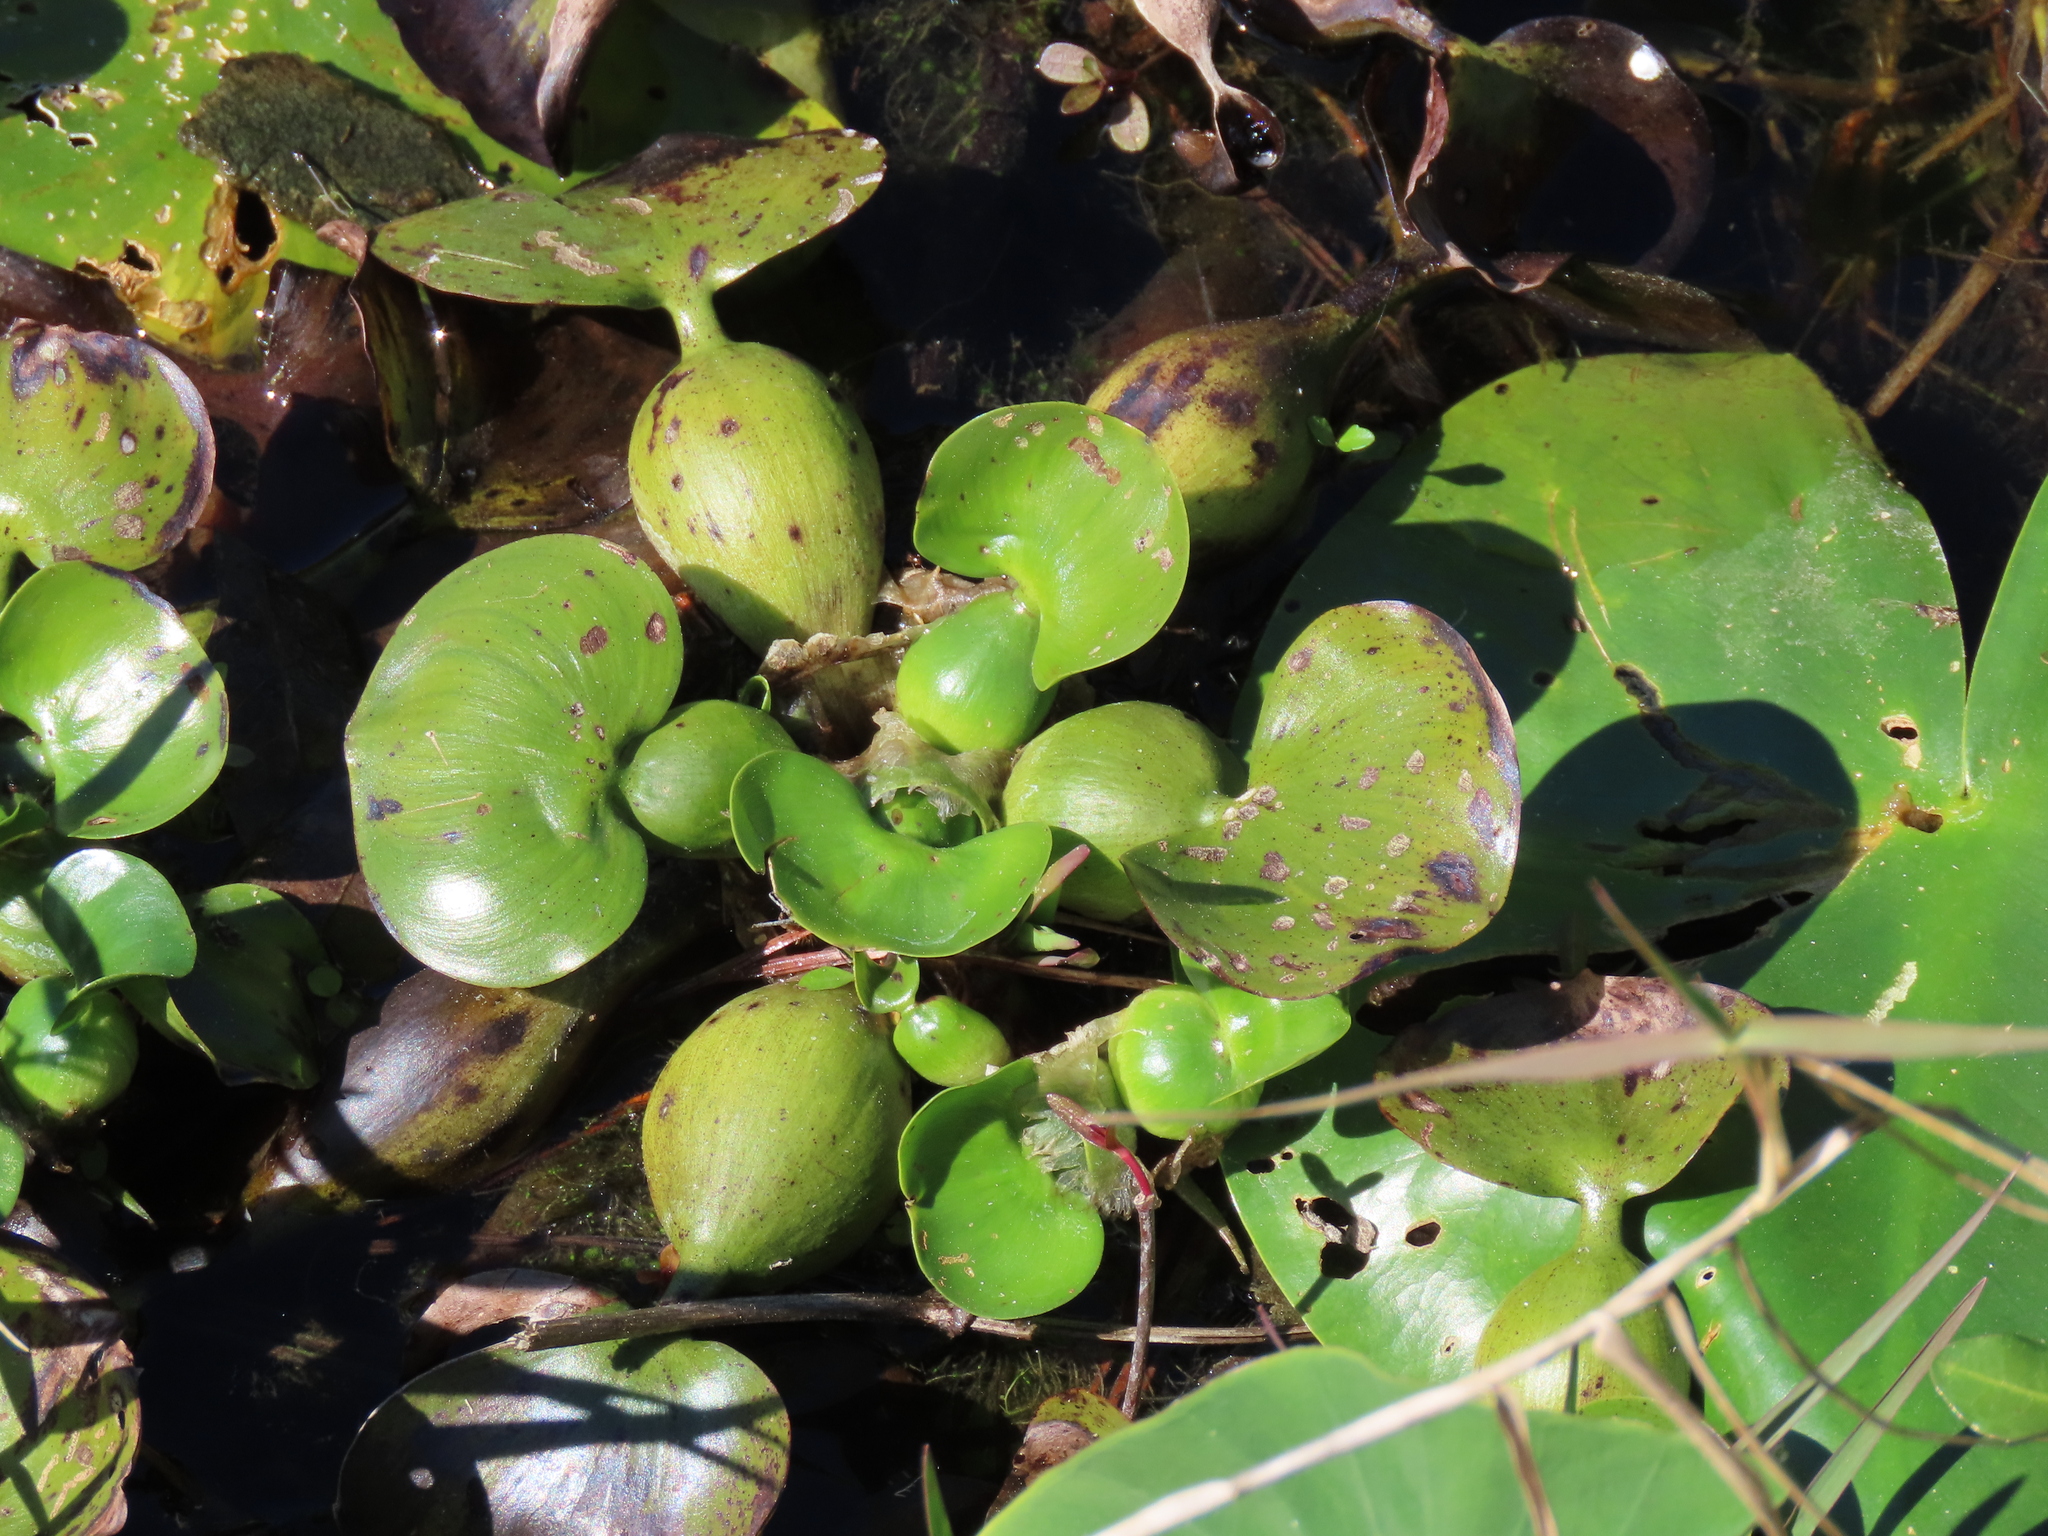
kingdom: Plantae
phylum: Tracheophyta
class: Liliopsida
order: Commelinales
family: Pontederiaceae
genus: Pontederia
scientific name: Pontederia crassipes
